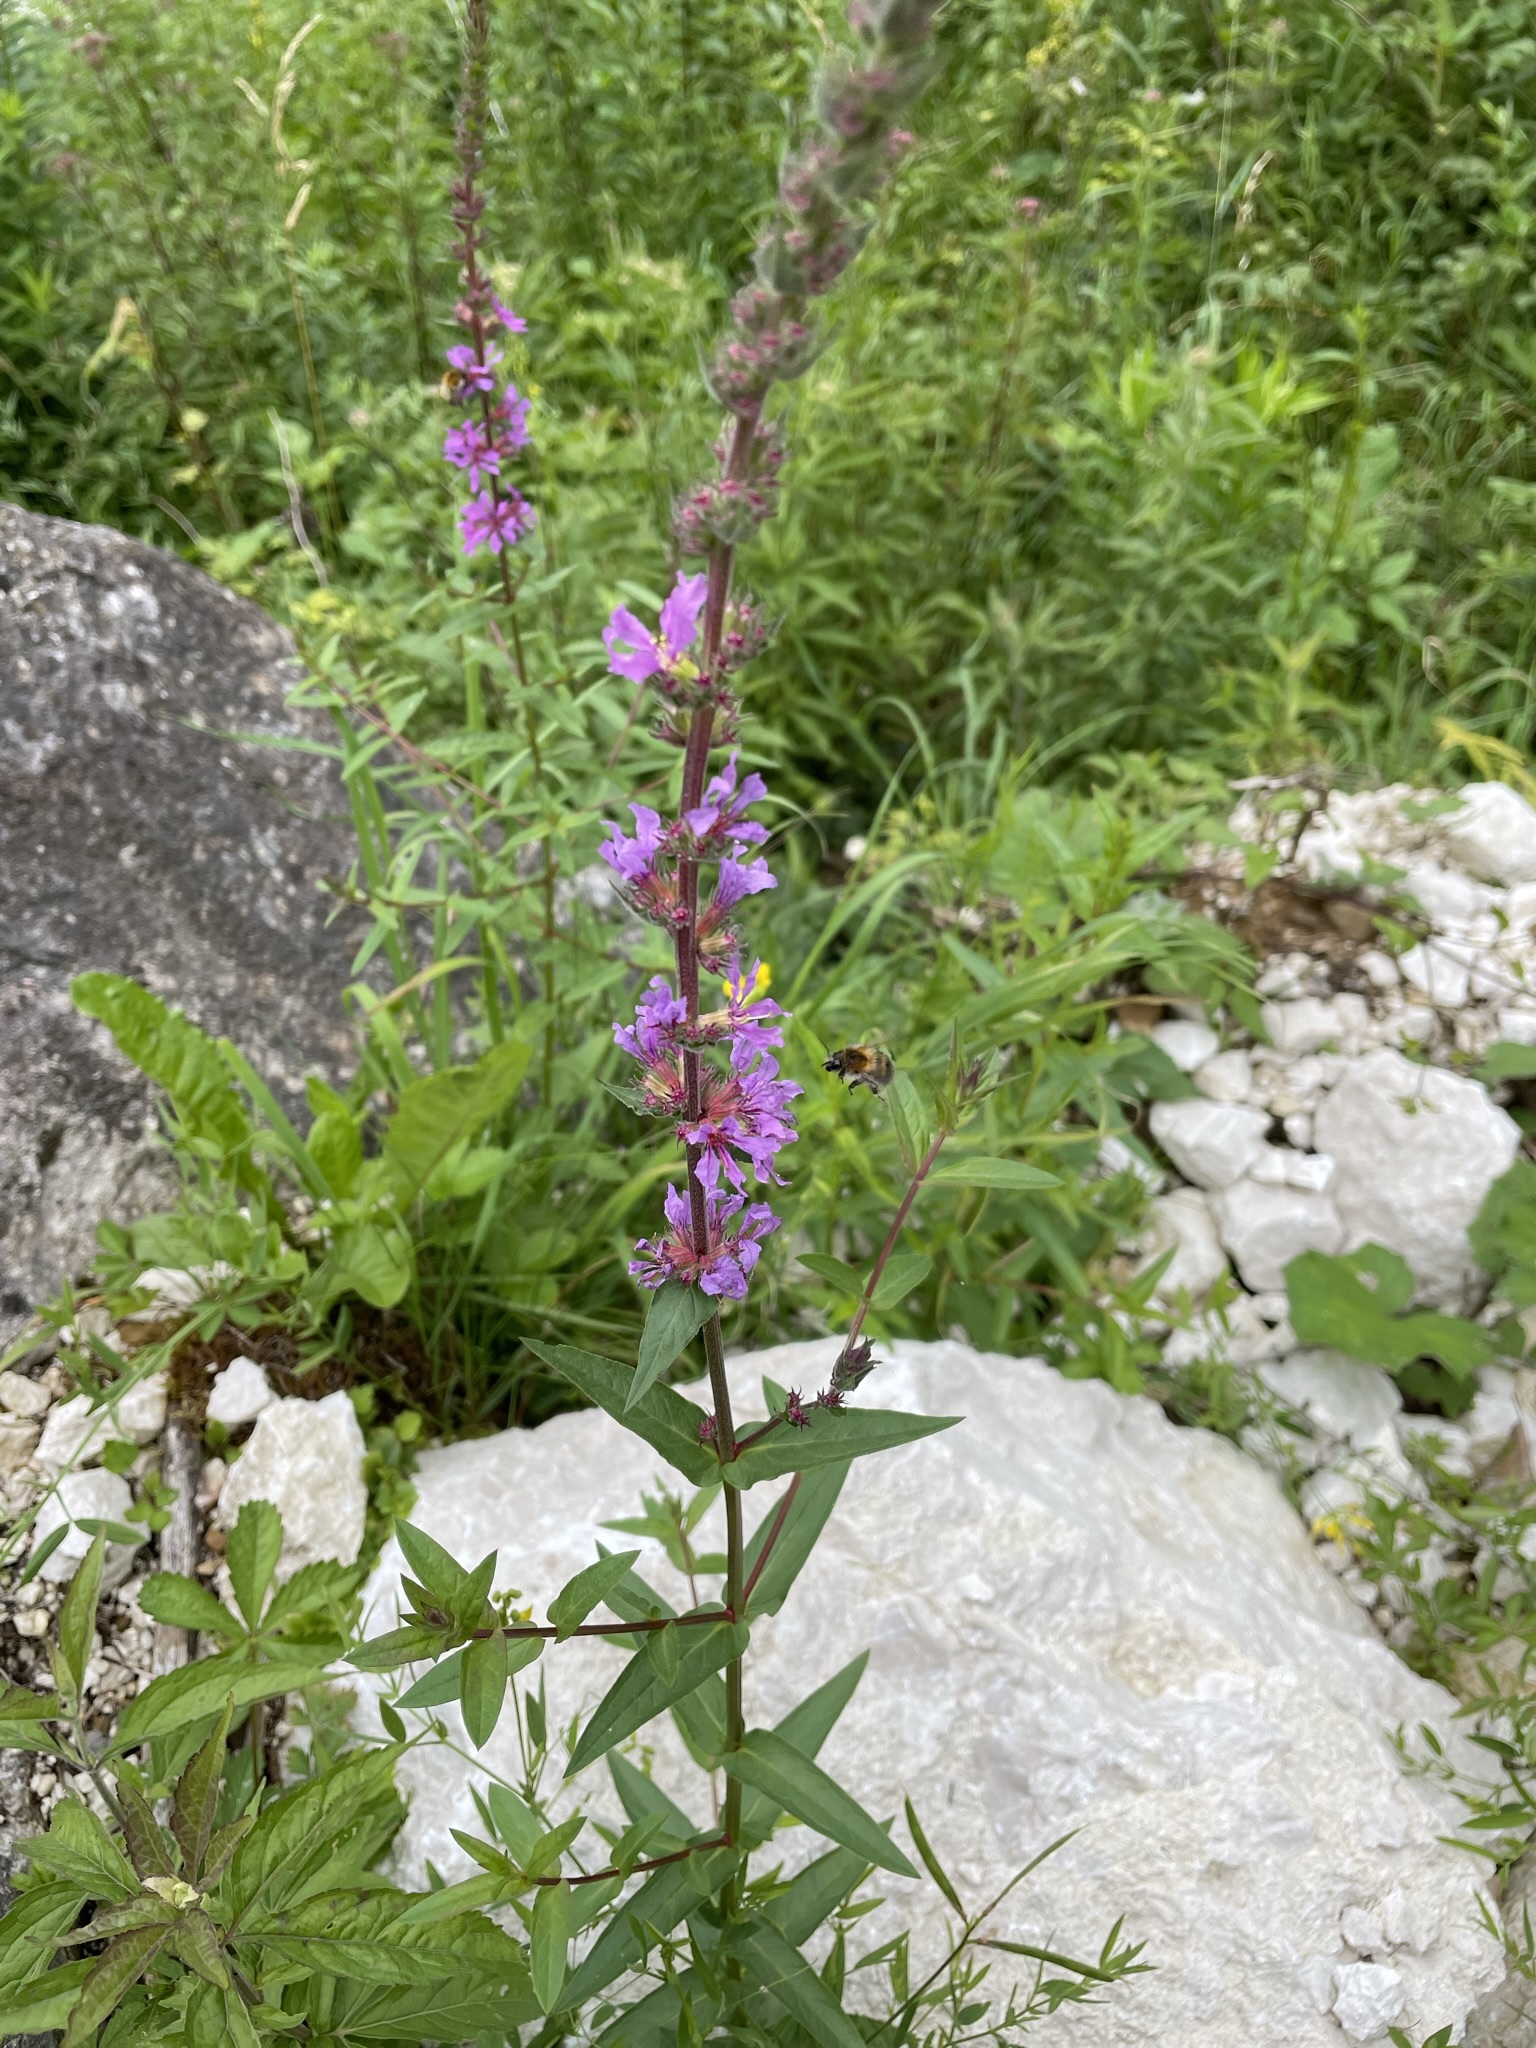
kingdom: Plantae
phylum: Tracheophyta
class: Magnoliopsida
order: Myrtales
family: Lythraceae
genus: Lythrum
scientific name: Lythrum salicaria
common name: Purple loosestrife
